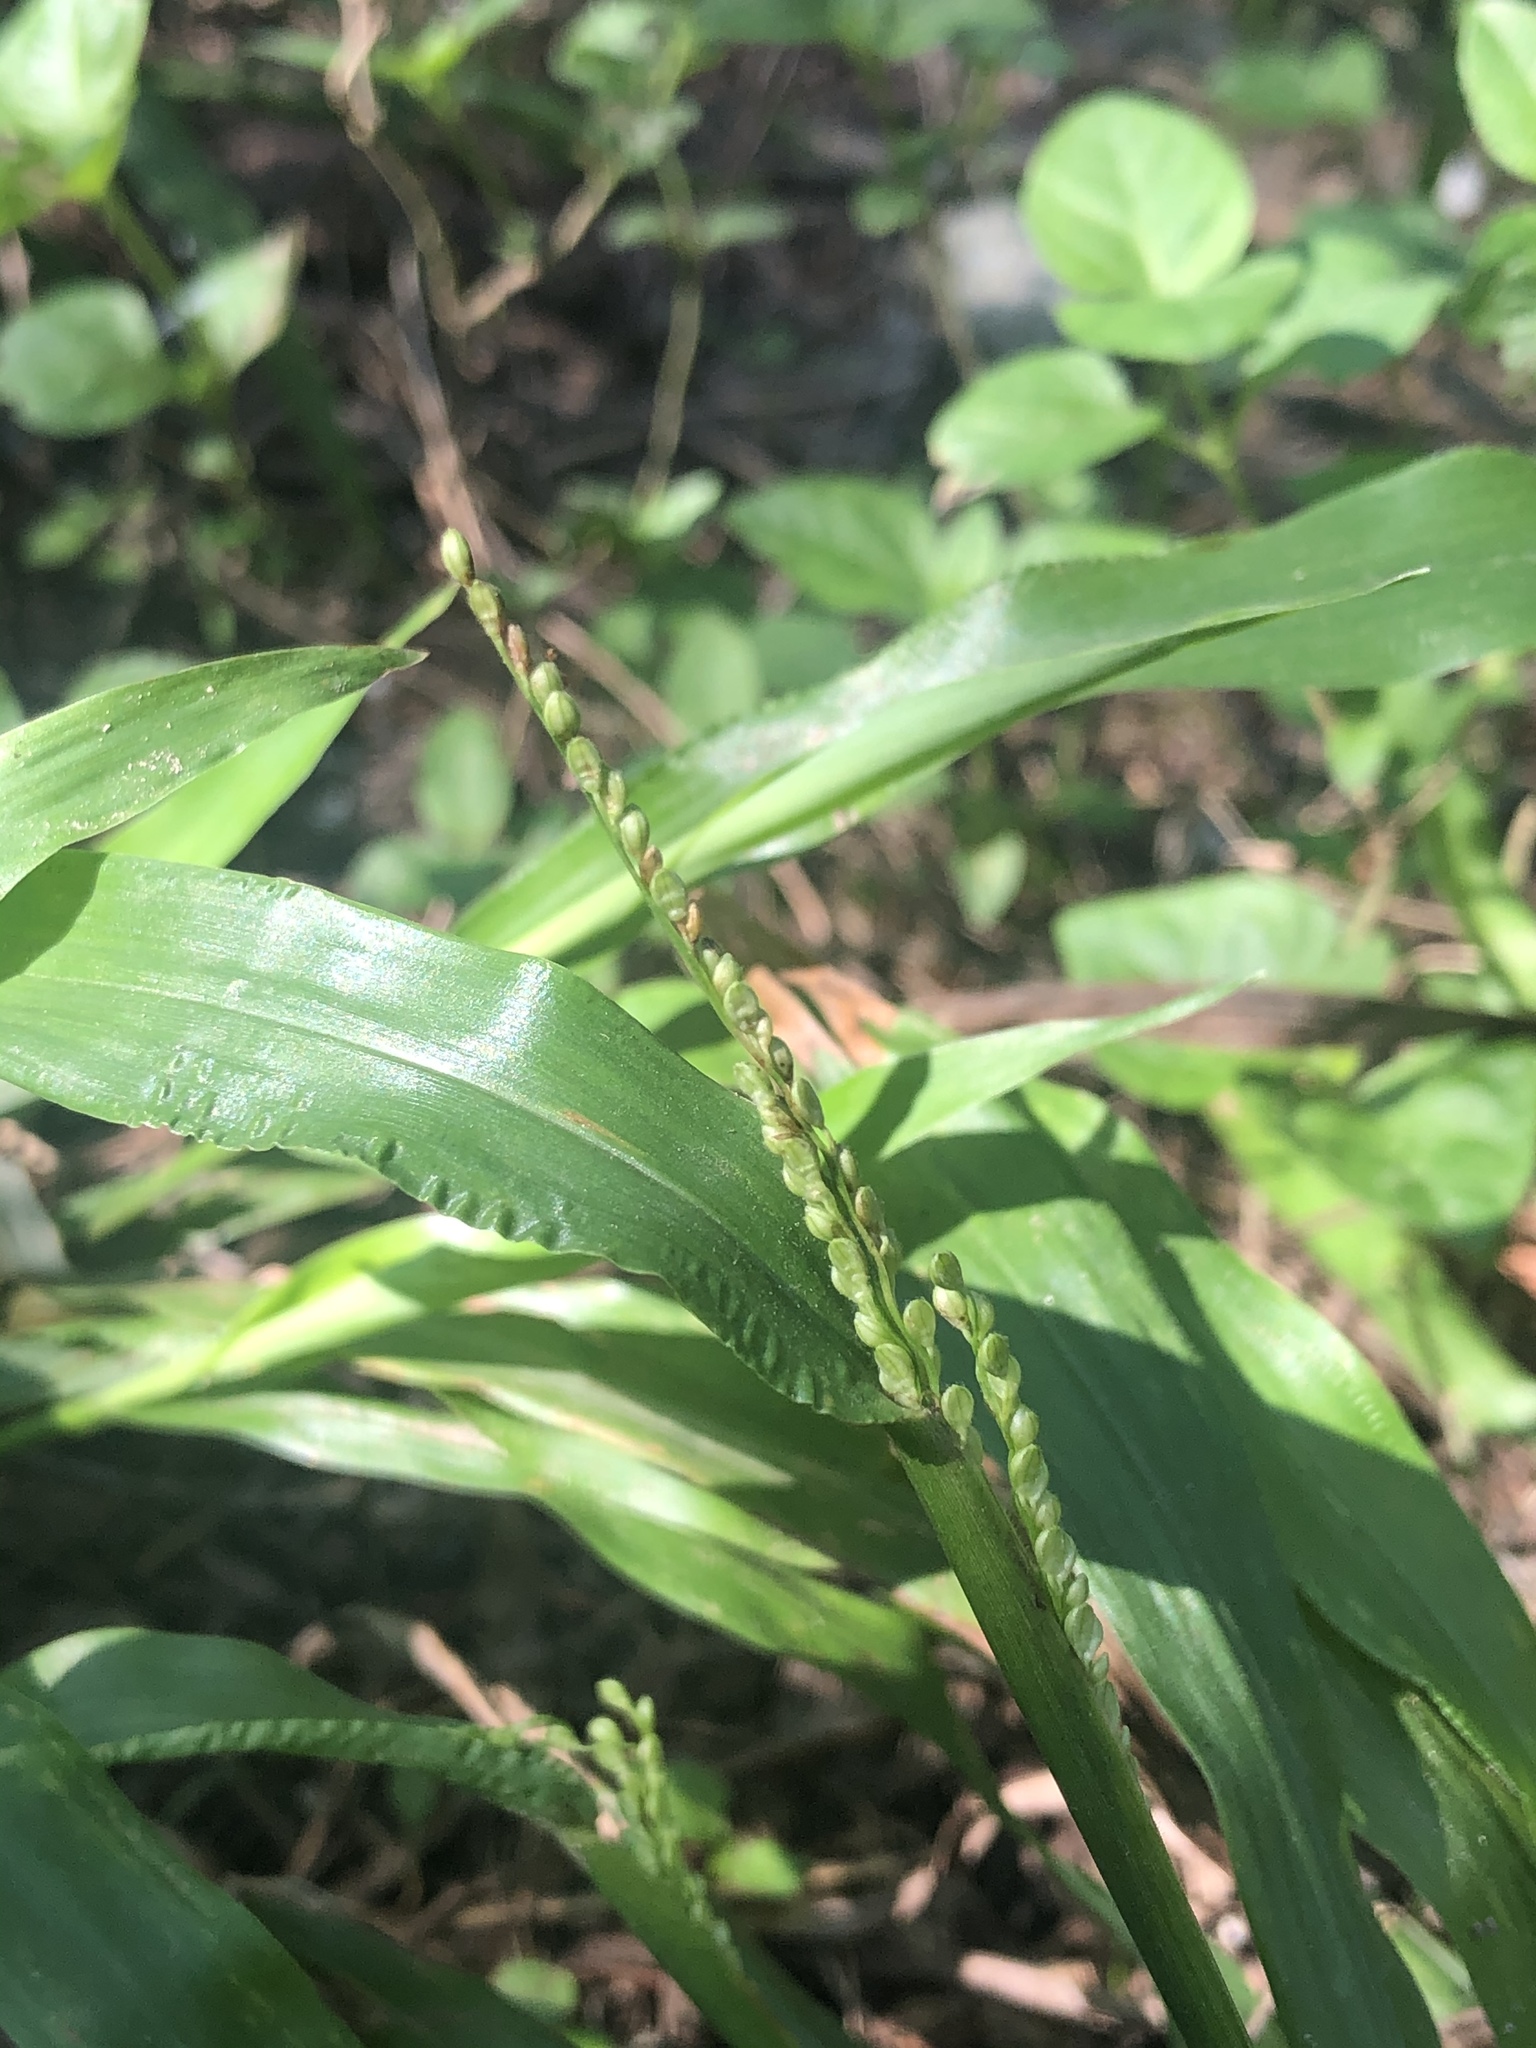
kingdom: Plantae
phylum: Tracheophyta
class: Liliopsida
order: Poales
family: Poaceae
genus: Paspalum
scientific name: Paspalum langei
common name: Rusty-seed paspalum
